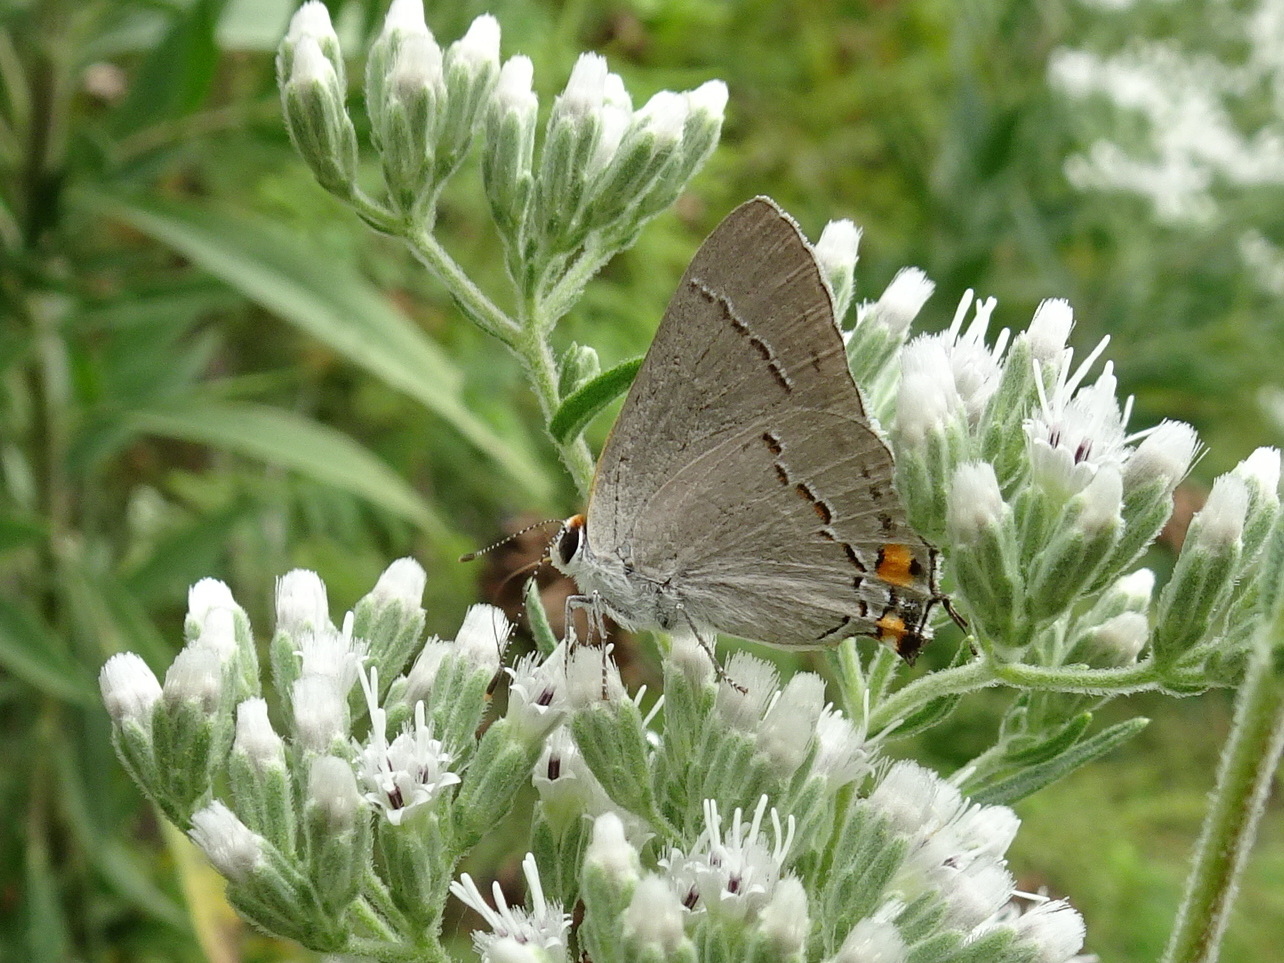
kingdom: Animalia
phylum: Arthropoda
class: Insecta
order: Lepidoptera
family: Lycaenidae
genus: Strymon
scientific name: Strymon melinus
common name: Gray hairstreak
